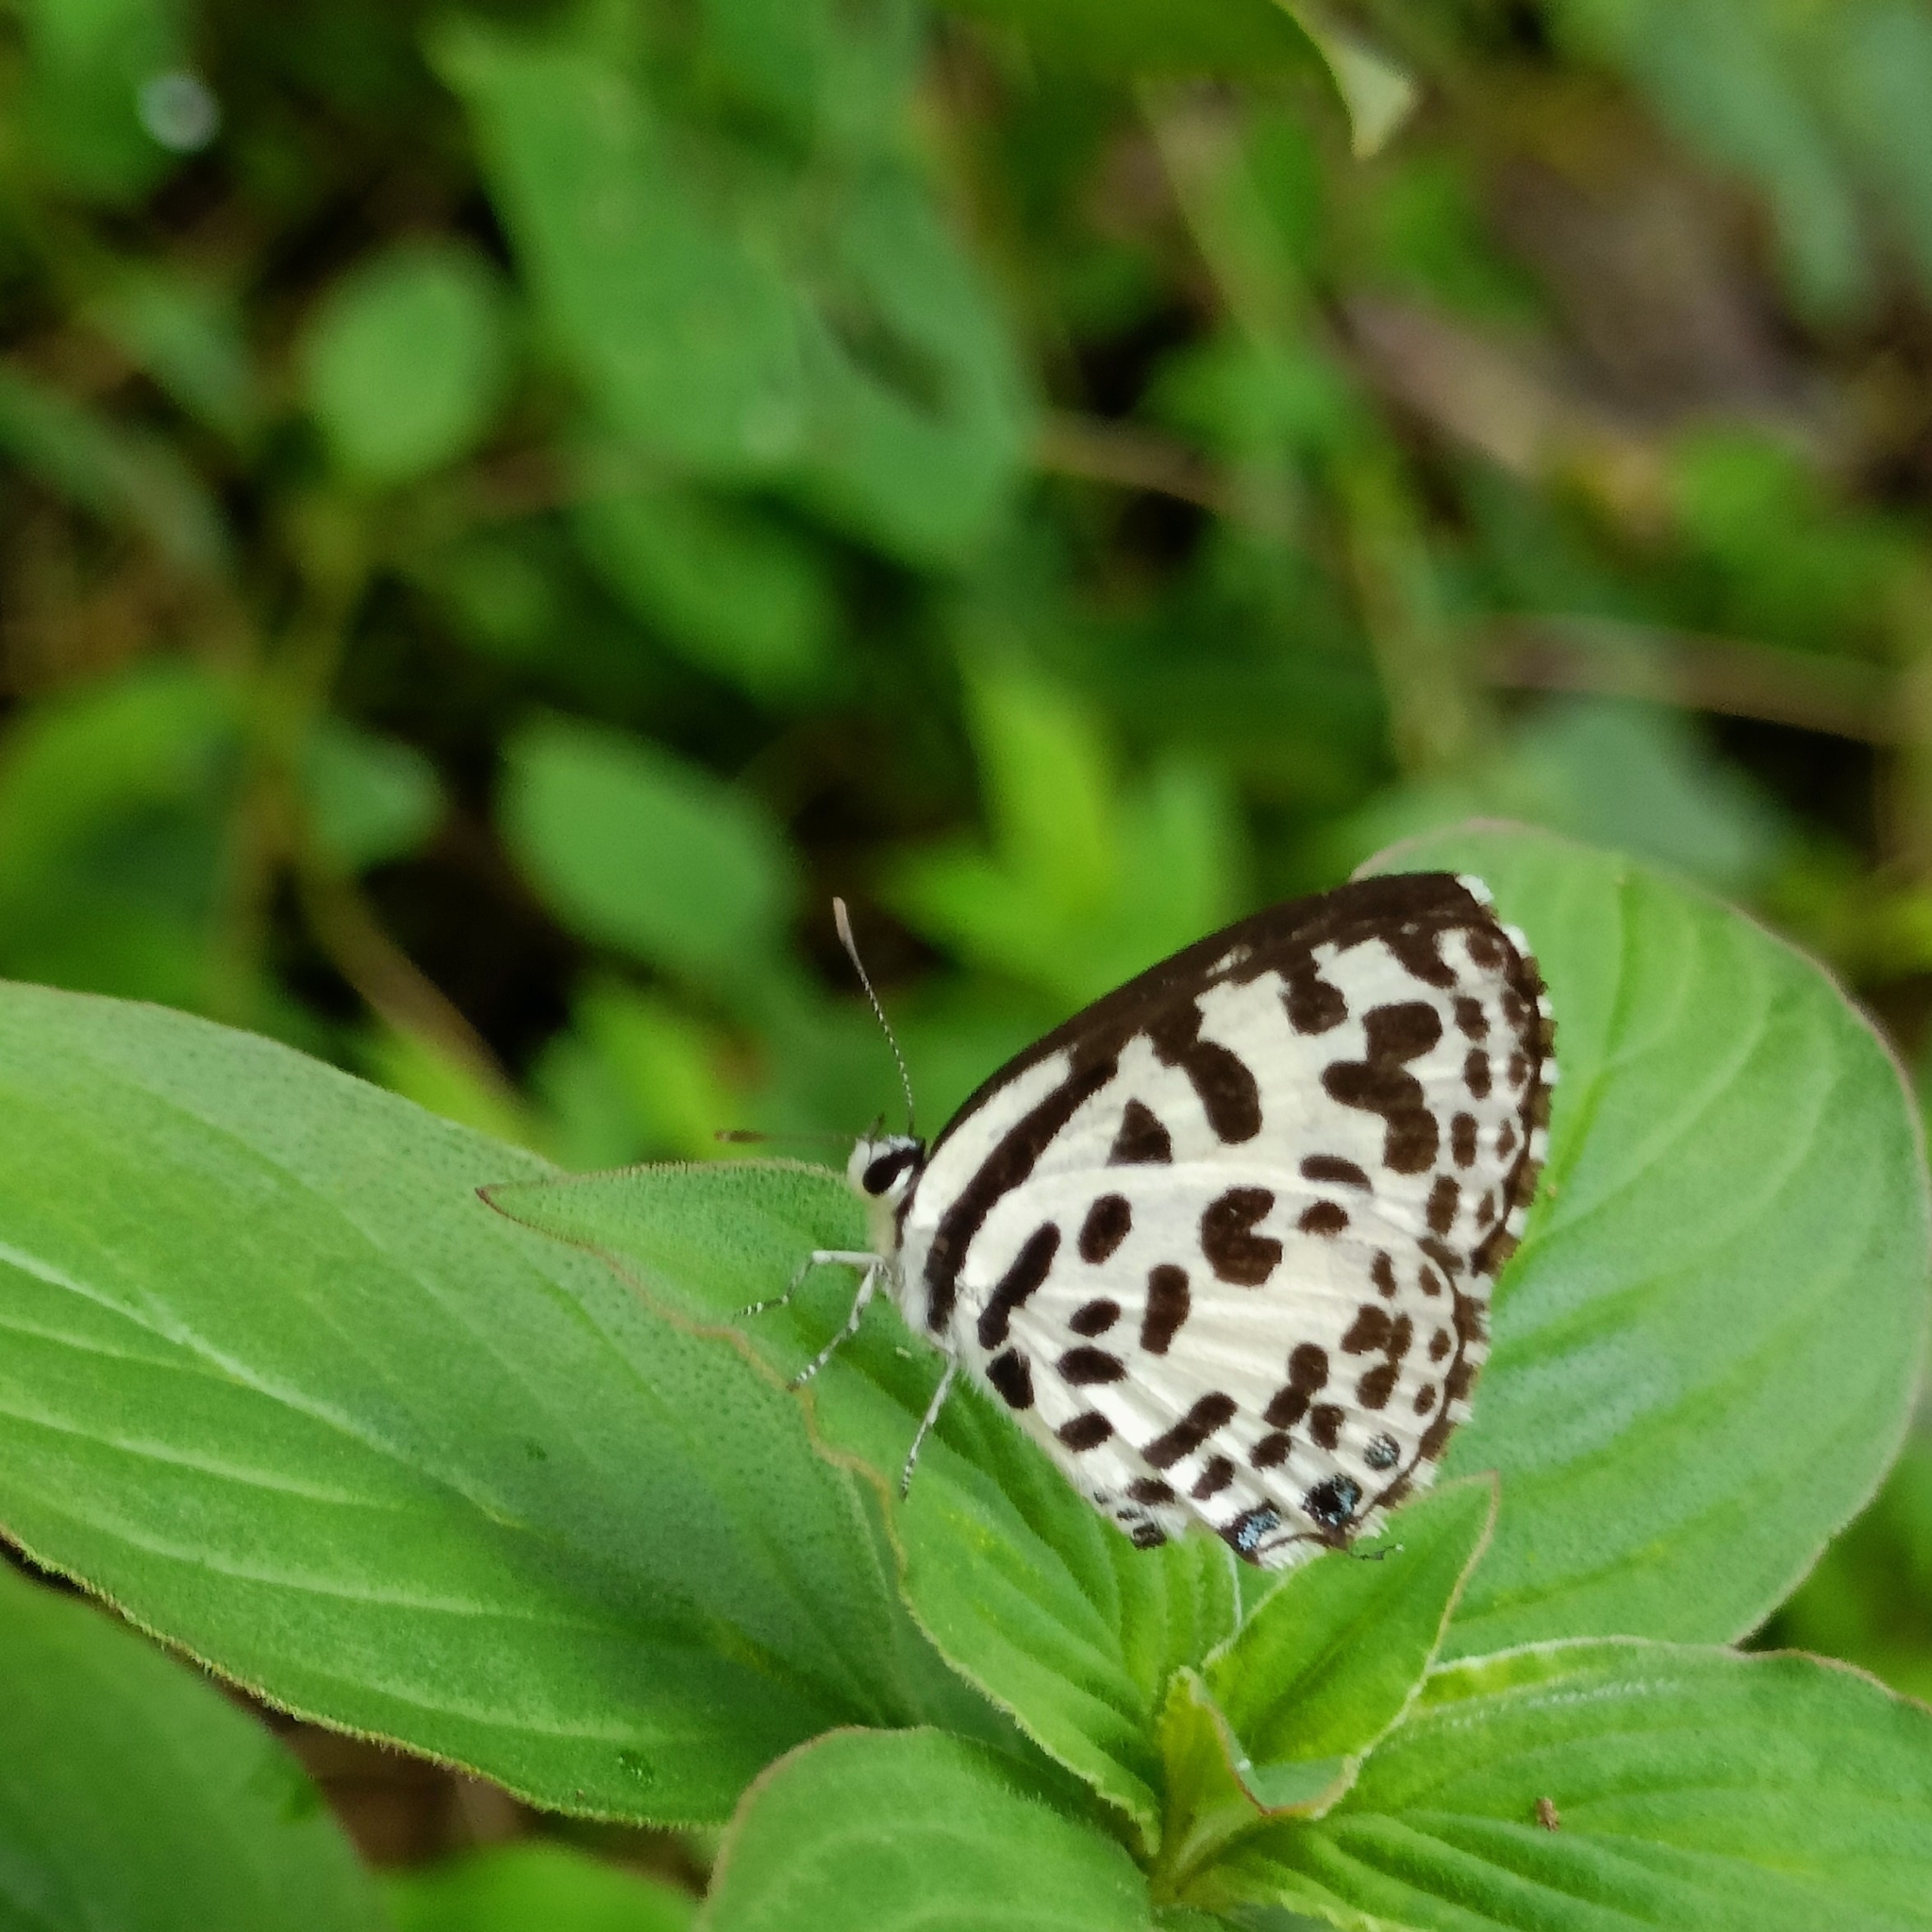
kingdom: Animalia
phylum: Arthropoda
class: Insecta
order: Lepidoptera
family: Lycaenidae
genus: Castalius
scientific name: Castalius rosimon
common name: Common pierrot
